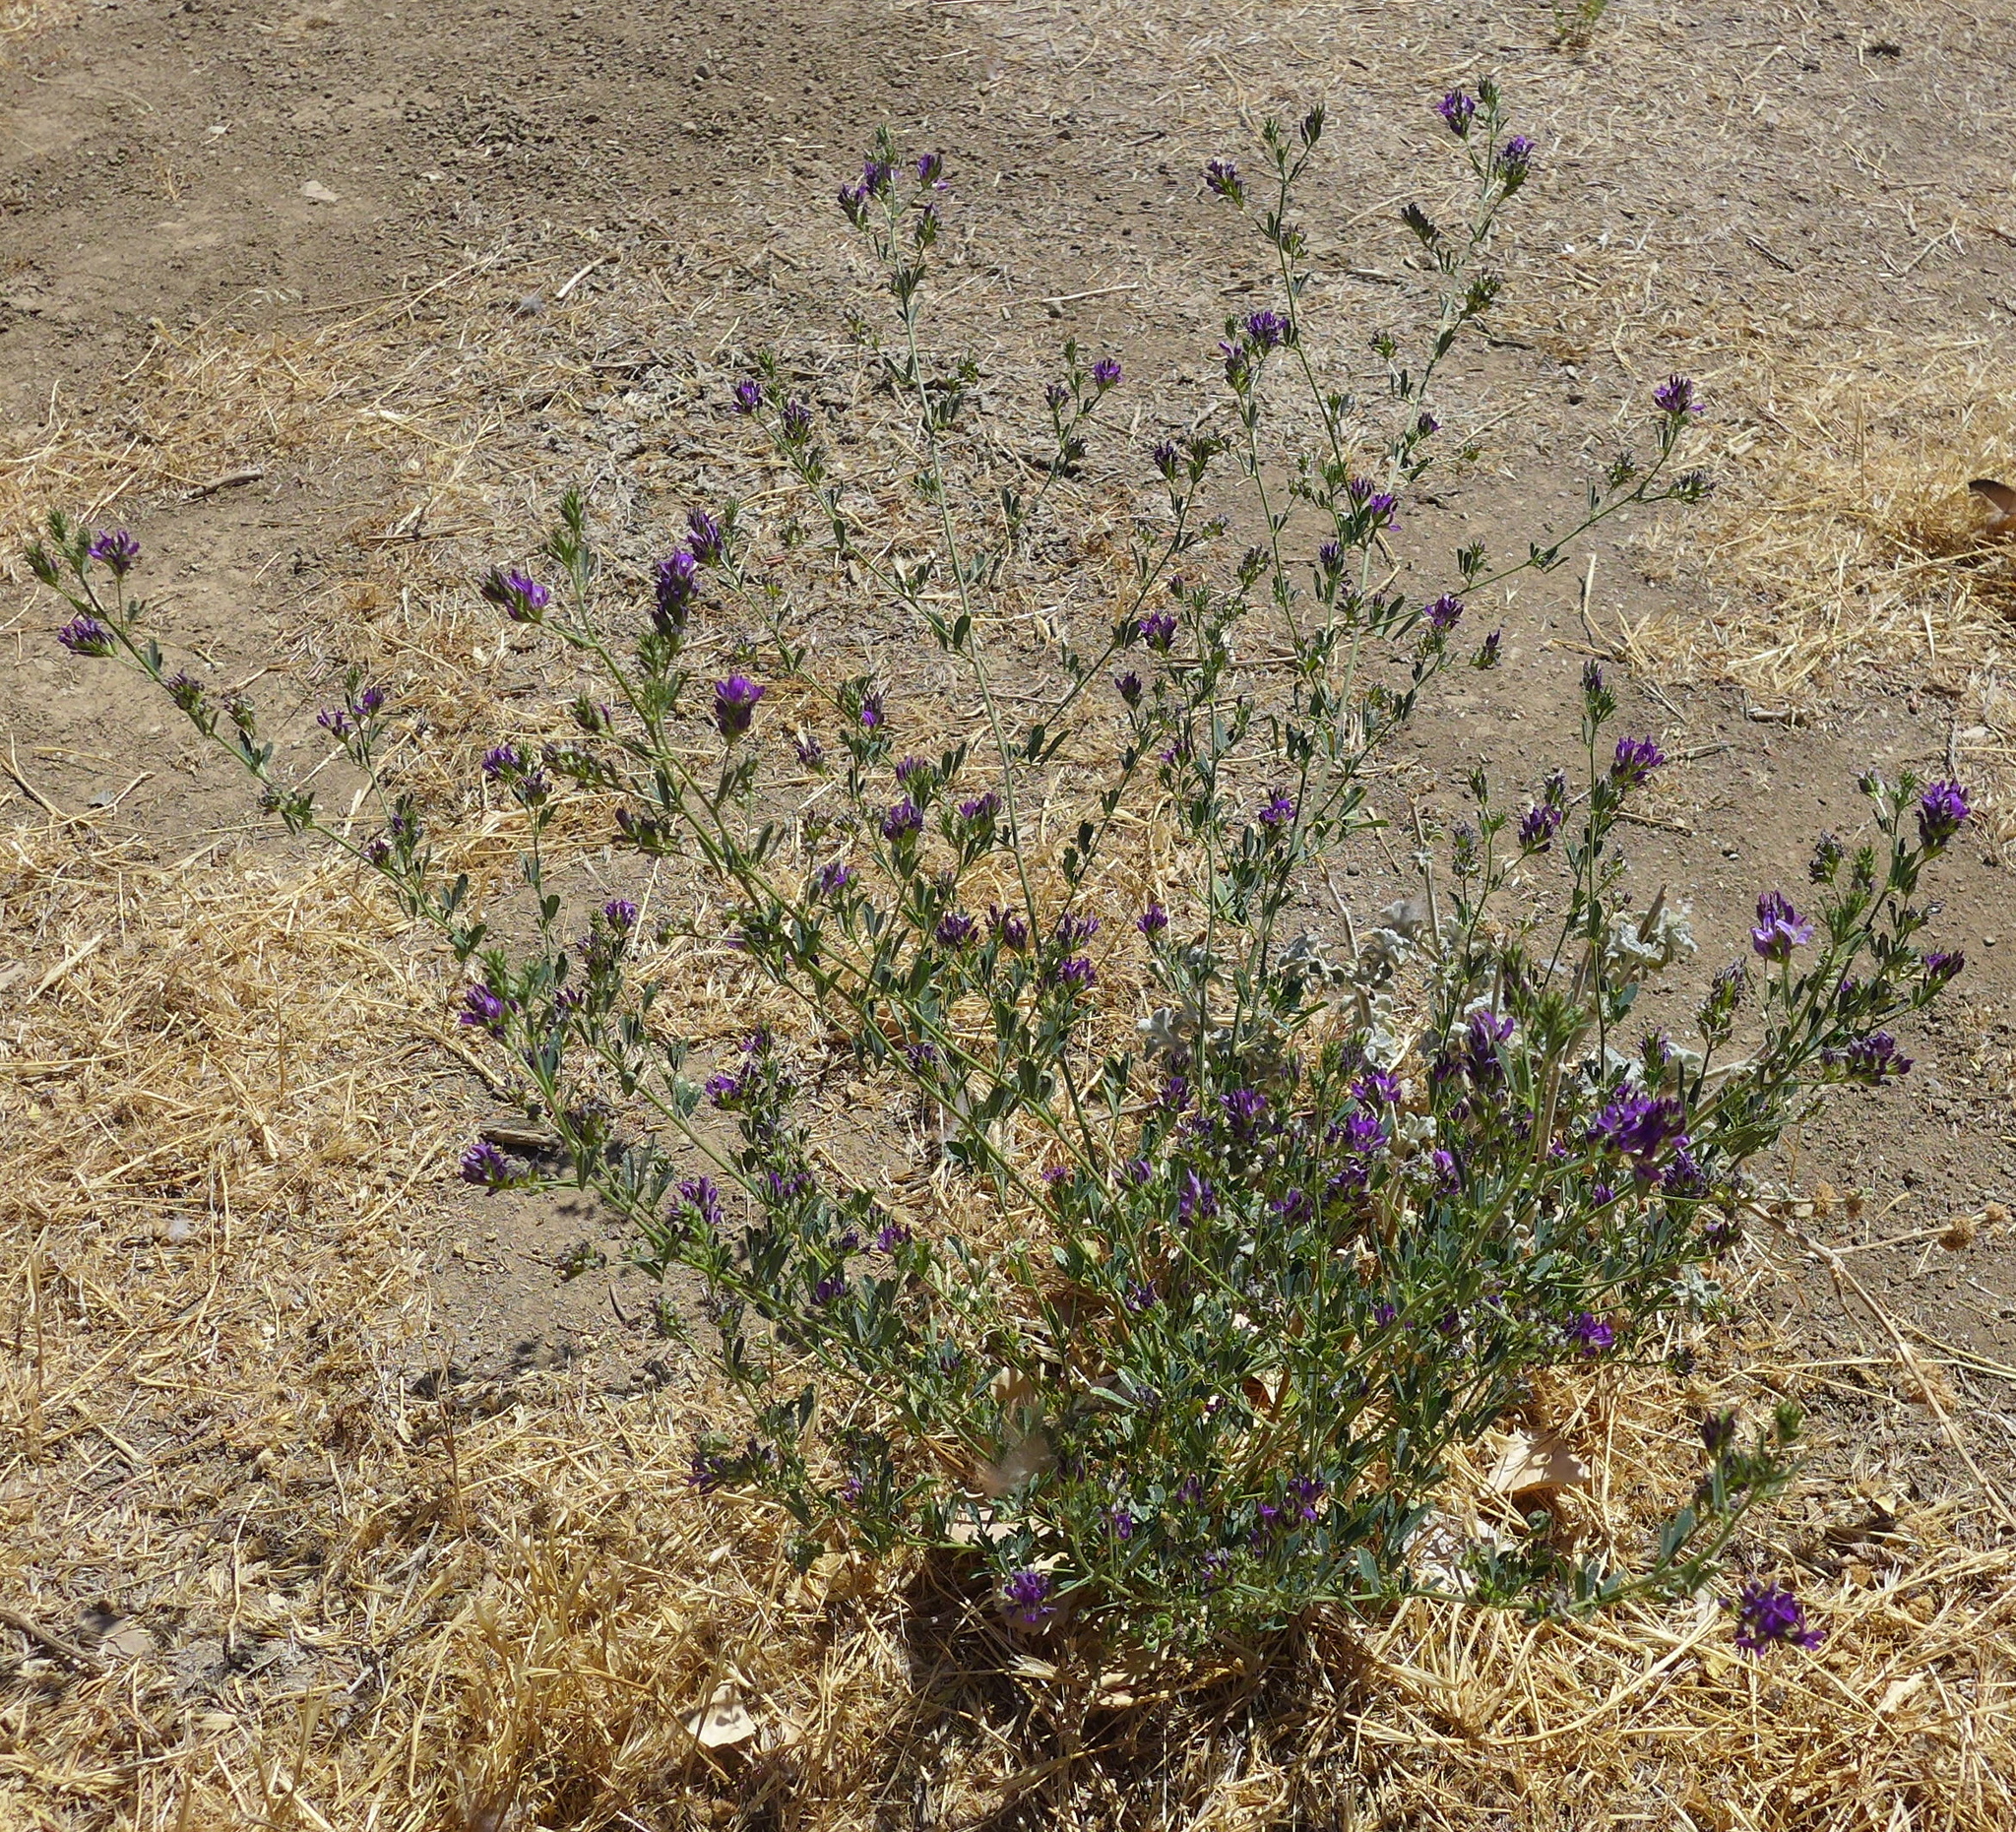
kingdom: Plantae
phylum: Tracheophyta
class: Magnoliopsida
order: Fabales
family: Fabaceae
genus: Medicago
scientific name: Medicago sativa
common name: Alfalfa
